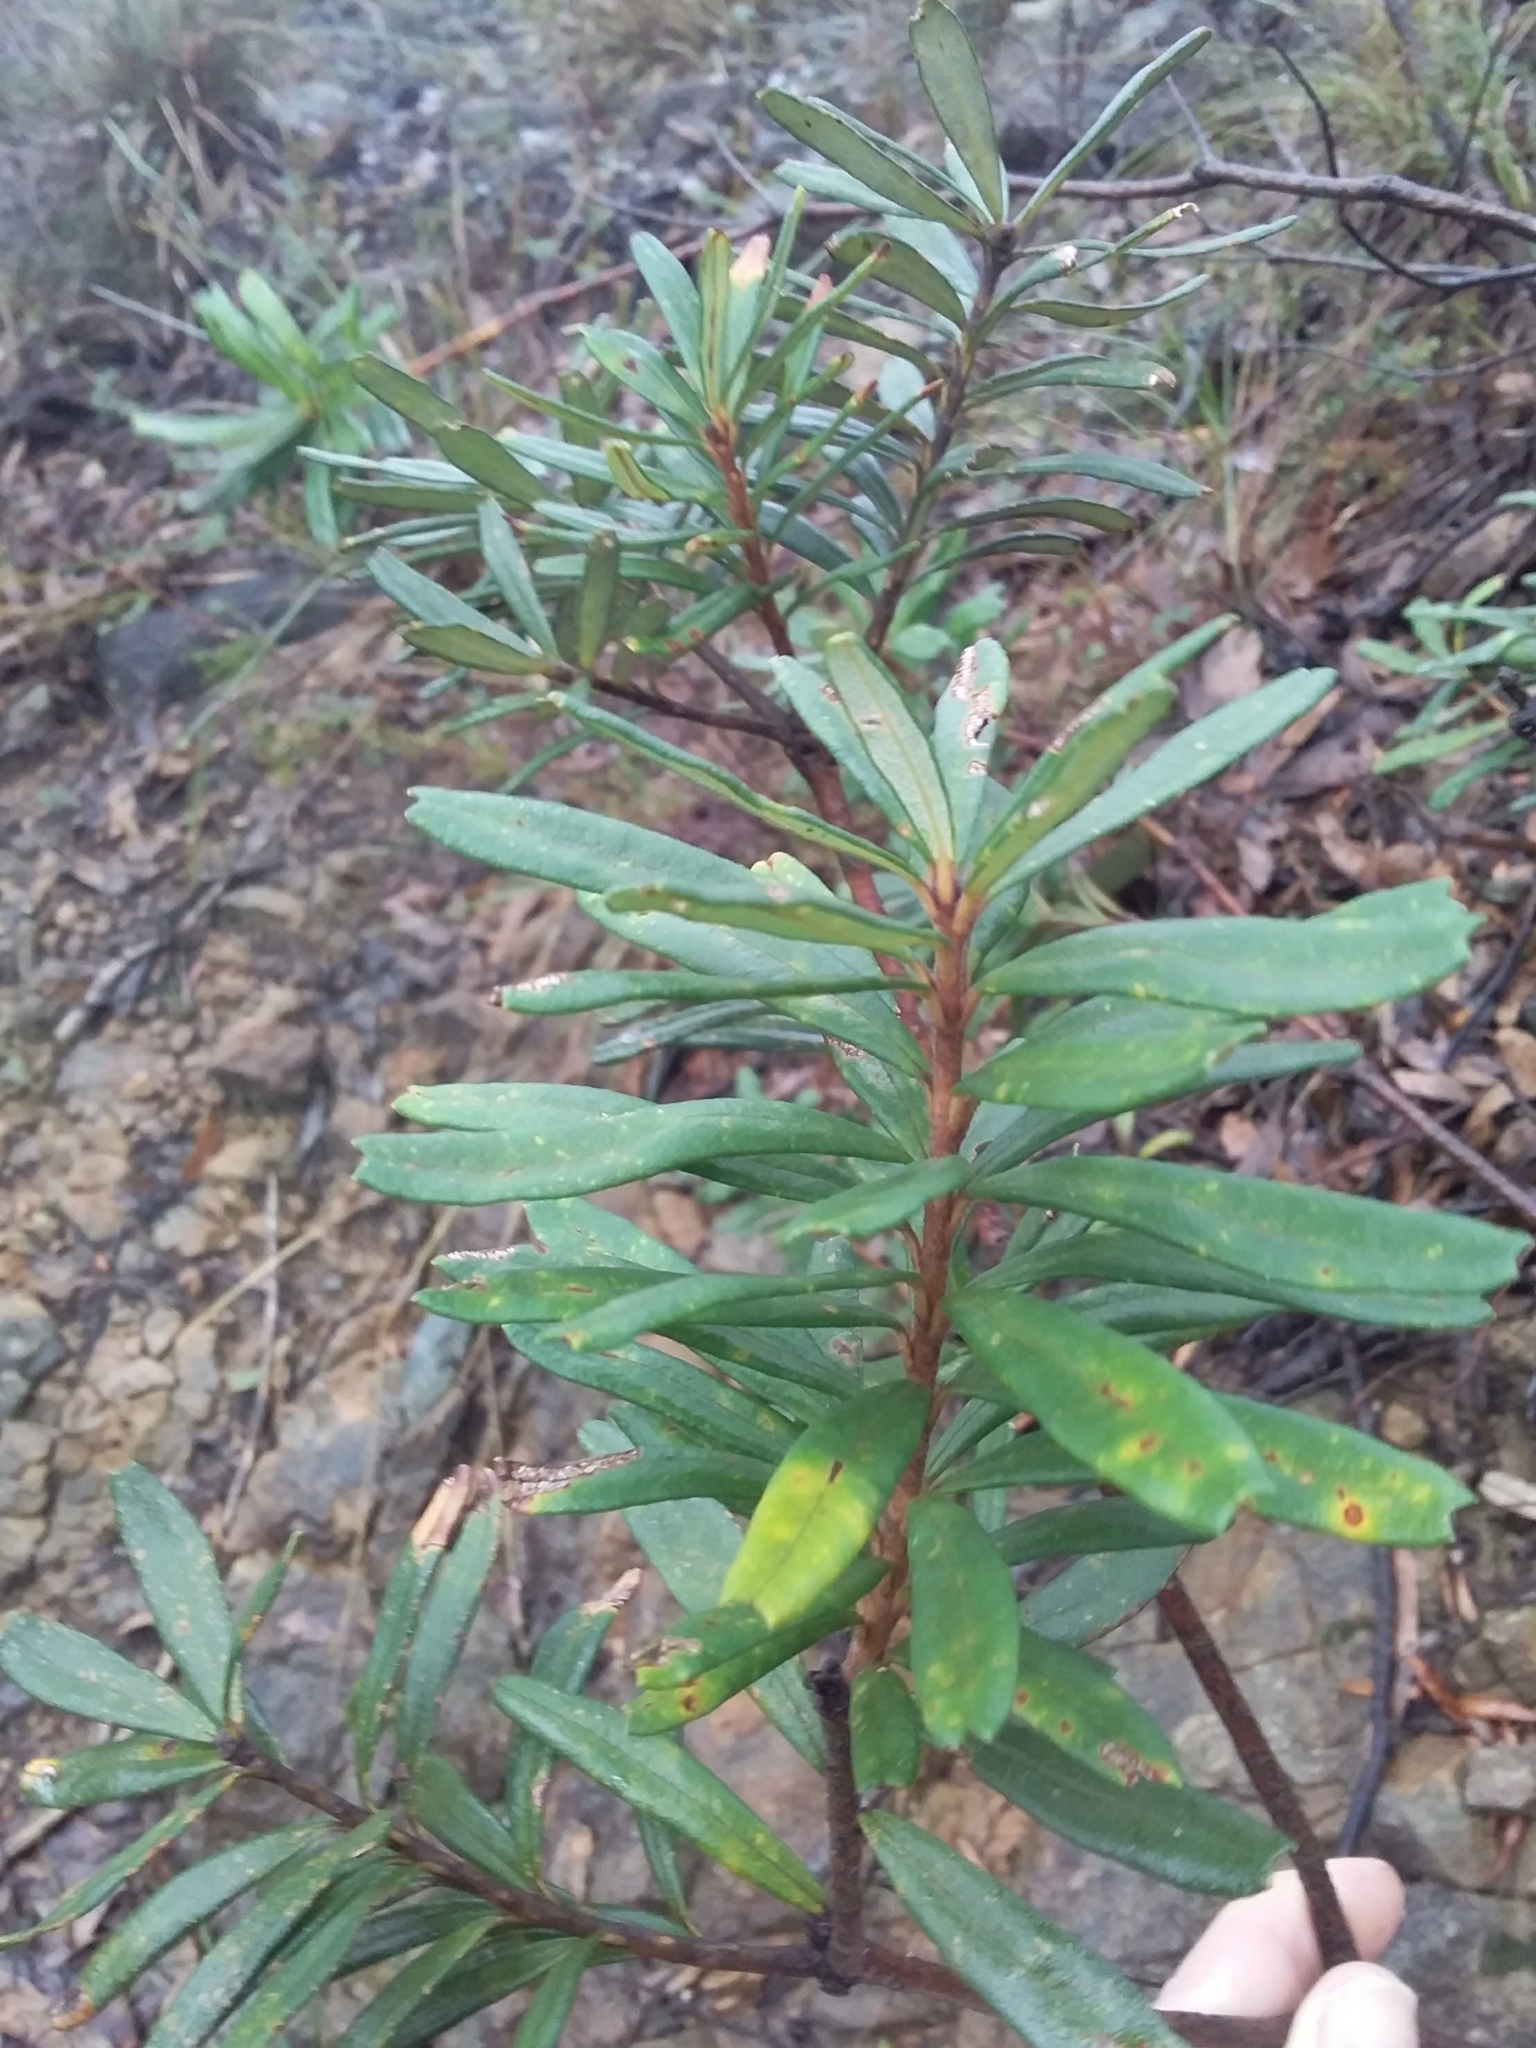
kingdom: Plantae
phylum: Tracheophyta
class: Magnoliopsida
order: Proteales
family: Proteaceae
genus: Banksia
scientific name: Banksia marginata
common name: Silver banksia
